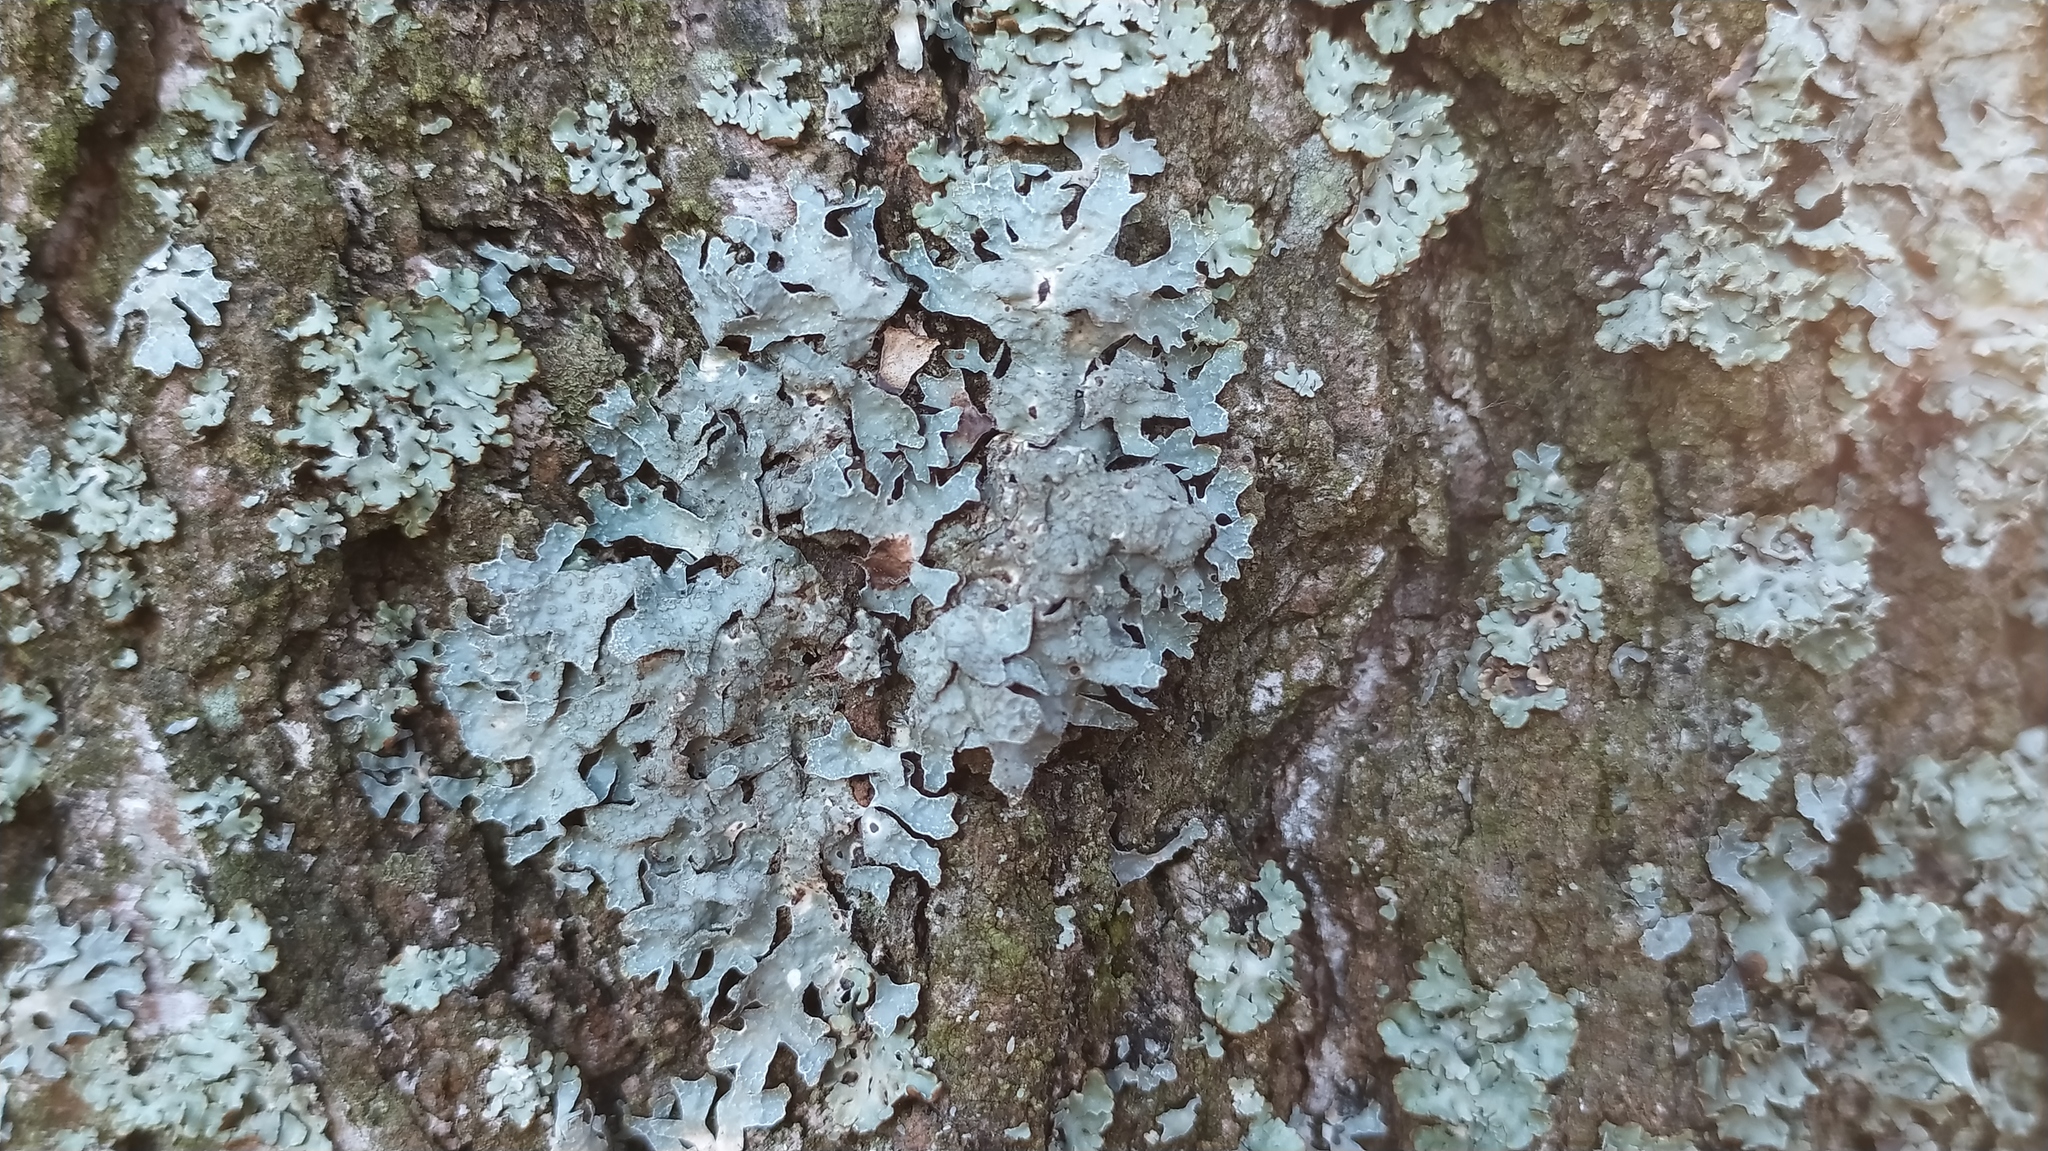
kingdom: Fungi
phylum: Ascomycota
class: Lecanoromycetes
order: Lecanorales
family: Parmeliaceae
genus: Parmelia
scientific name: Parmelia sulcata
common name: Netted shield lichen
